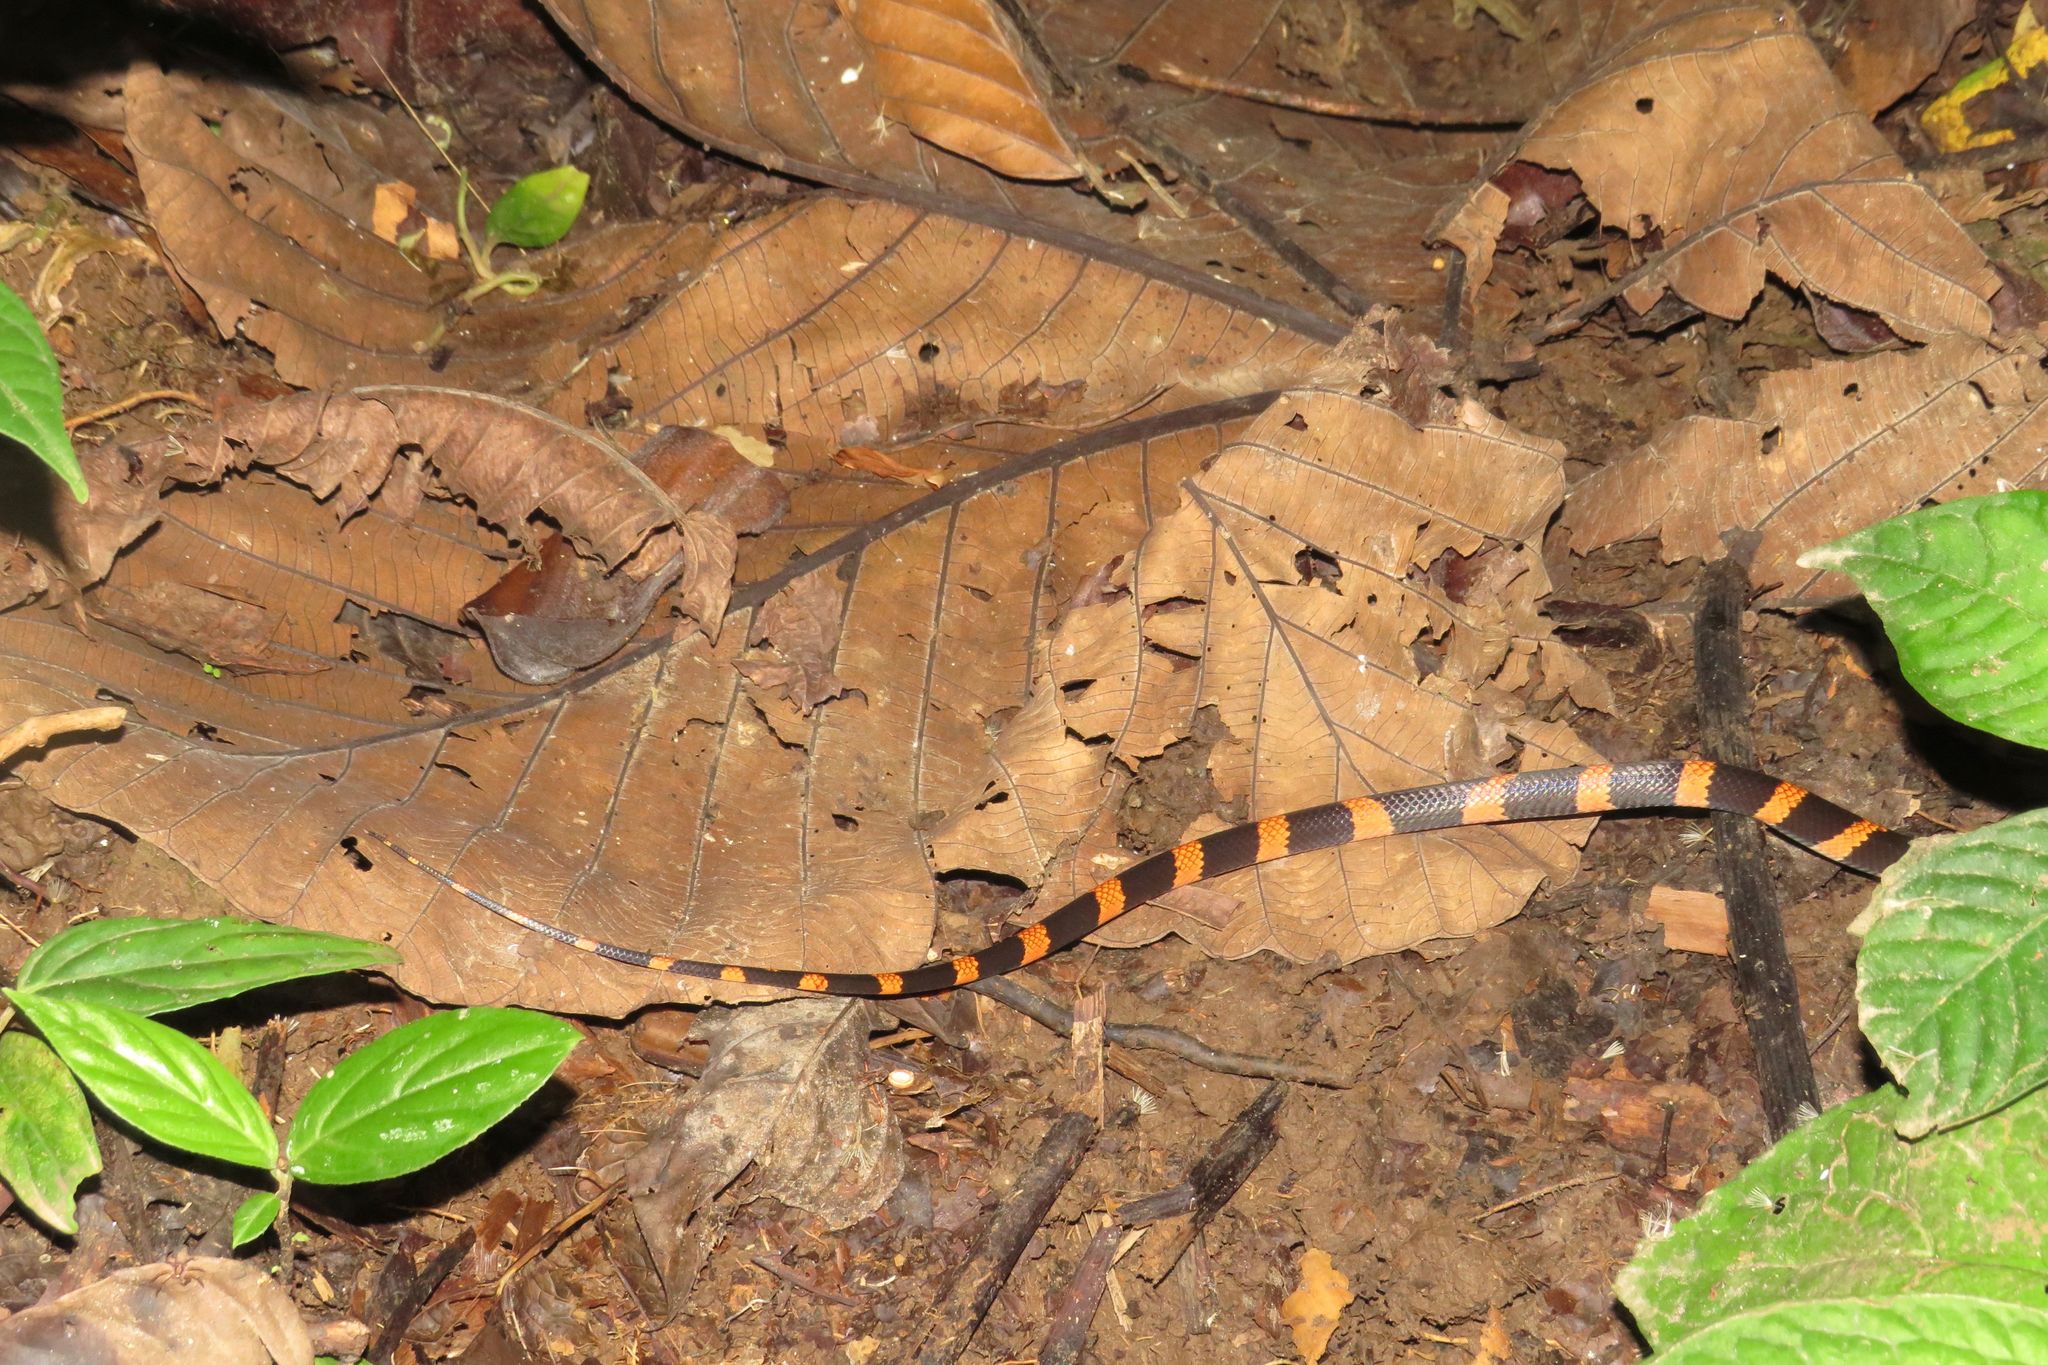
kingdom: Animalia
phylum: Chordata
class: Squamata
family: Colubridae
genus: Oxyrhopus
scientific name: Oxyrhopus petolarius
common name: Forest flame snake
